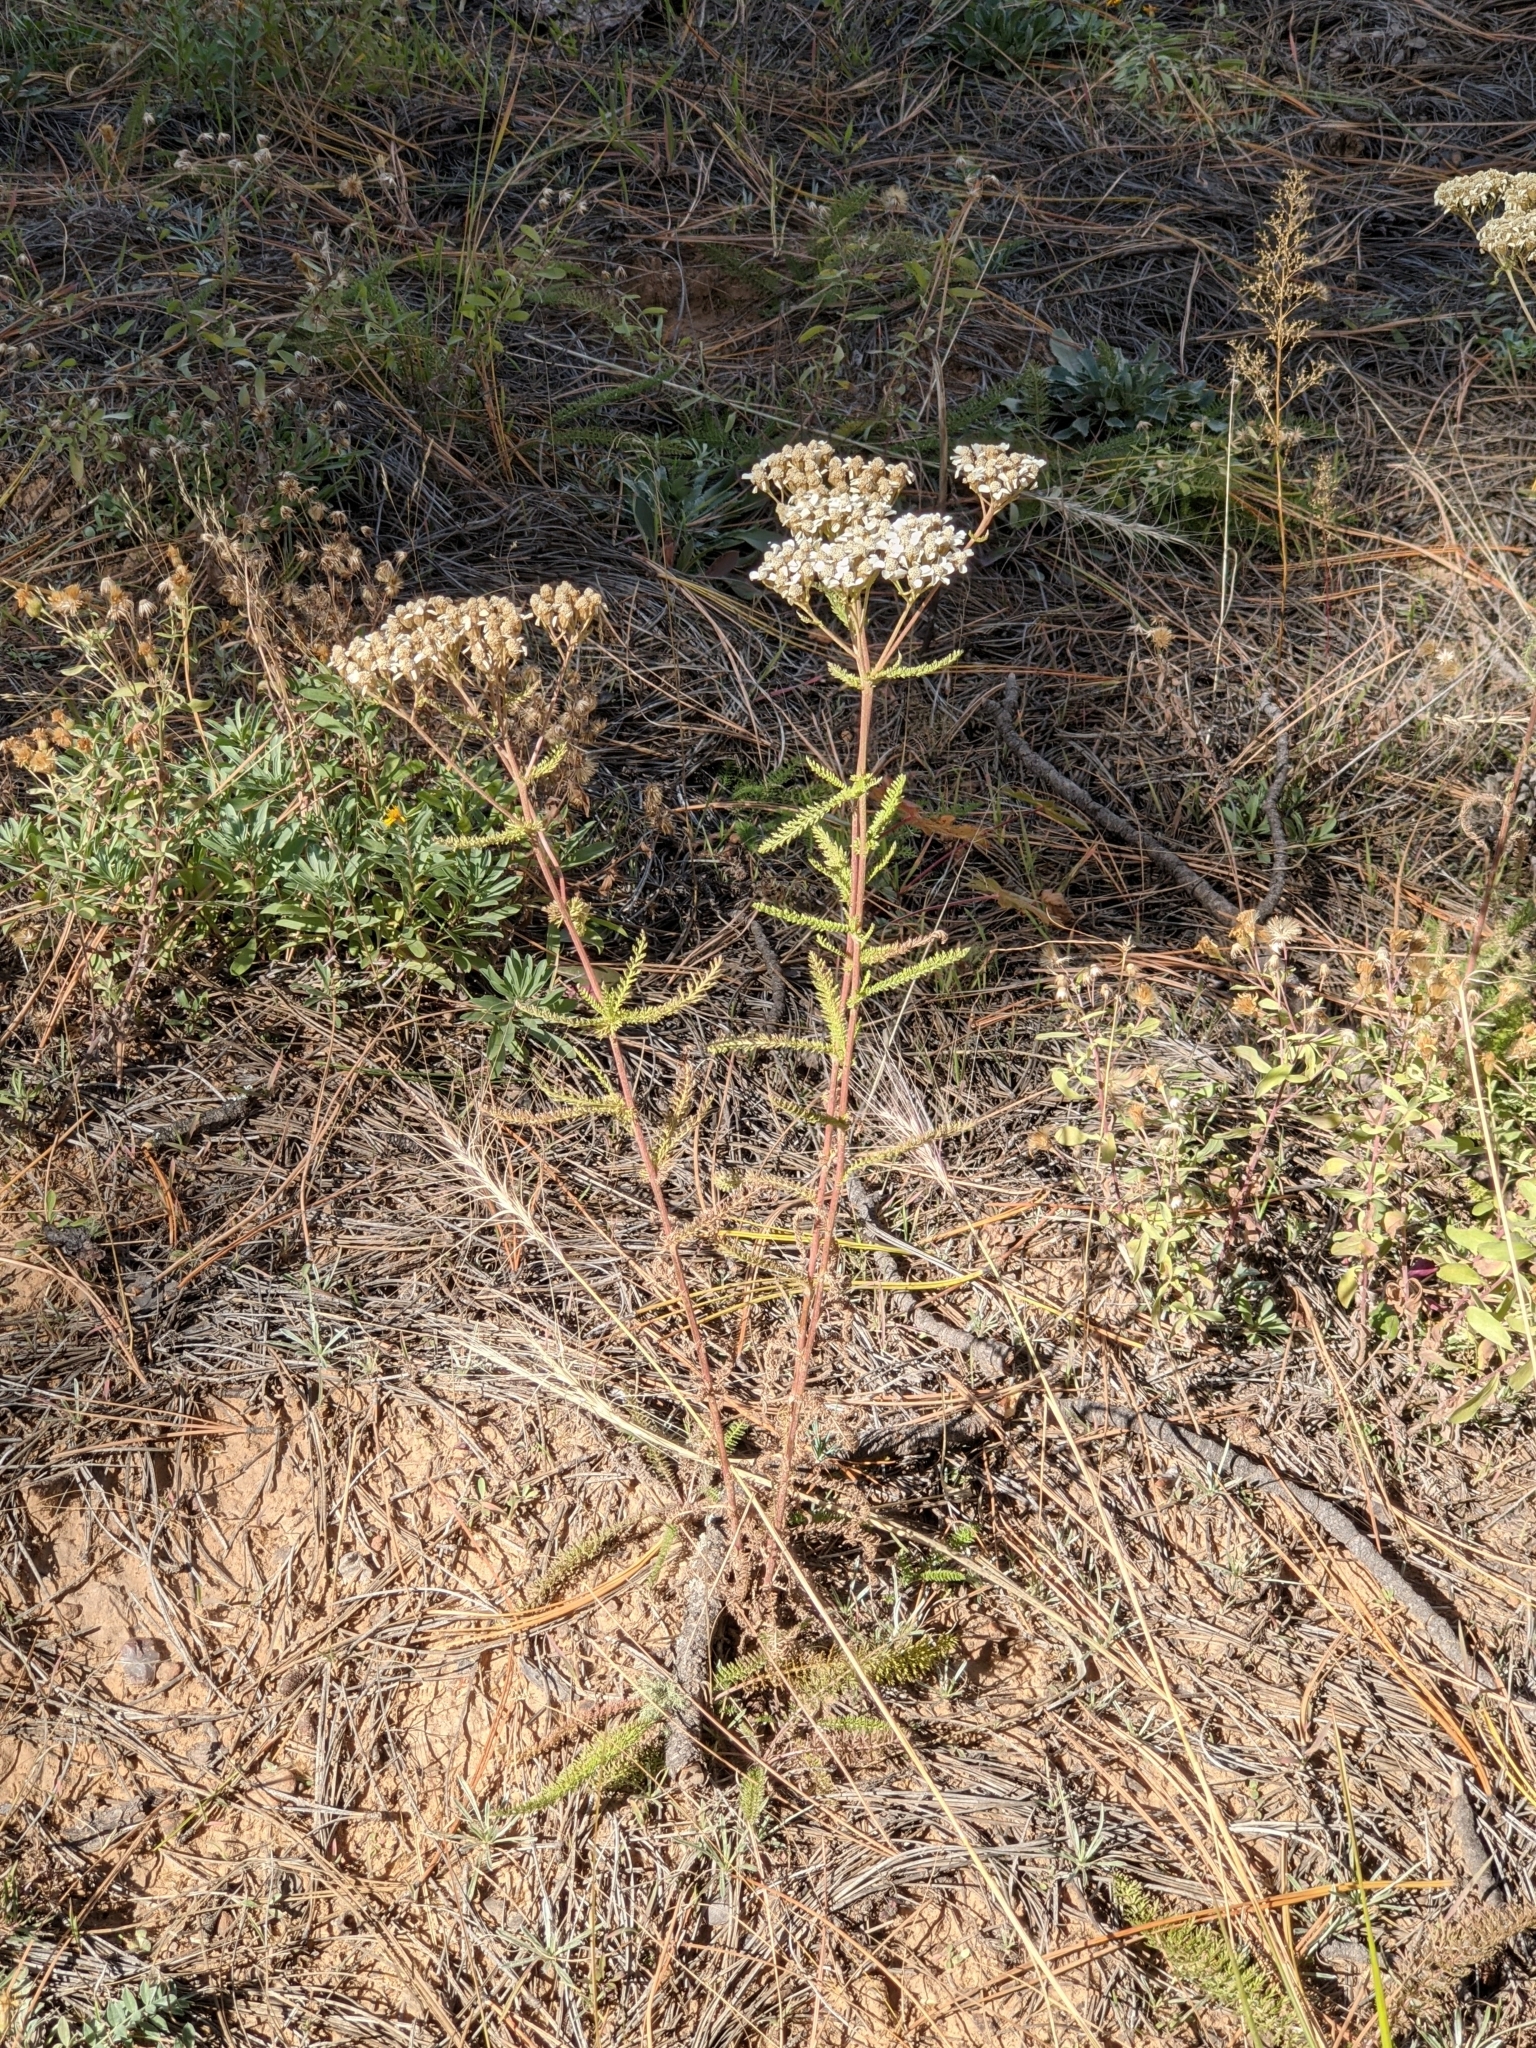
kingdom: Plantae
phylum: Tracheophyta
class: Magnoliopsida
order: Asterales
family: Asteraceae
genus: Achillea
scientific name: Achillea millefolium
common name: Yarrow
